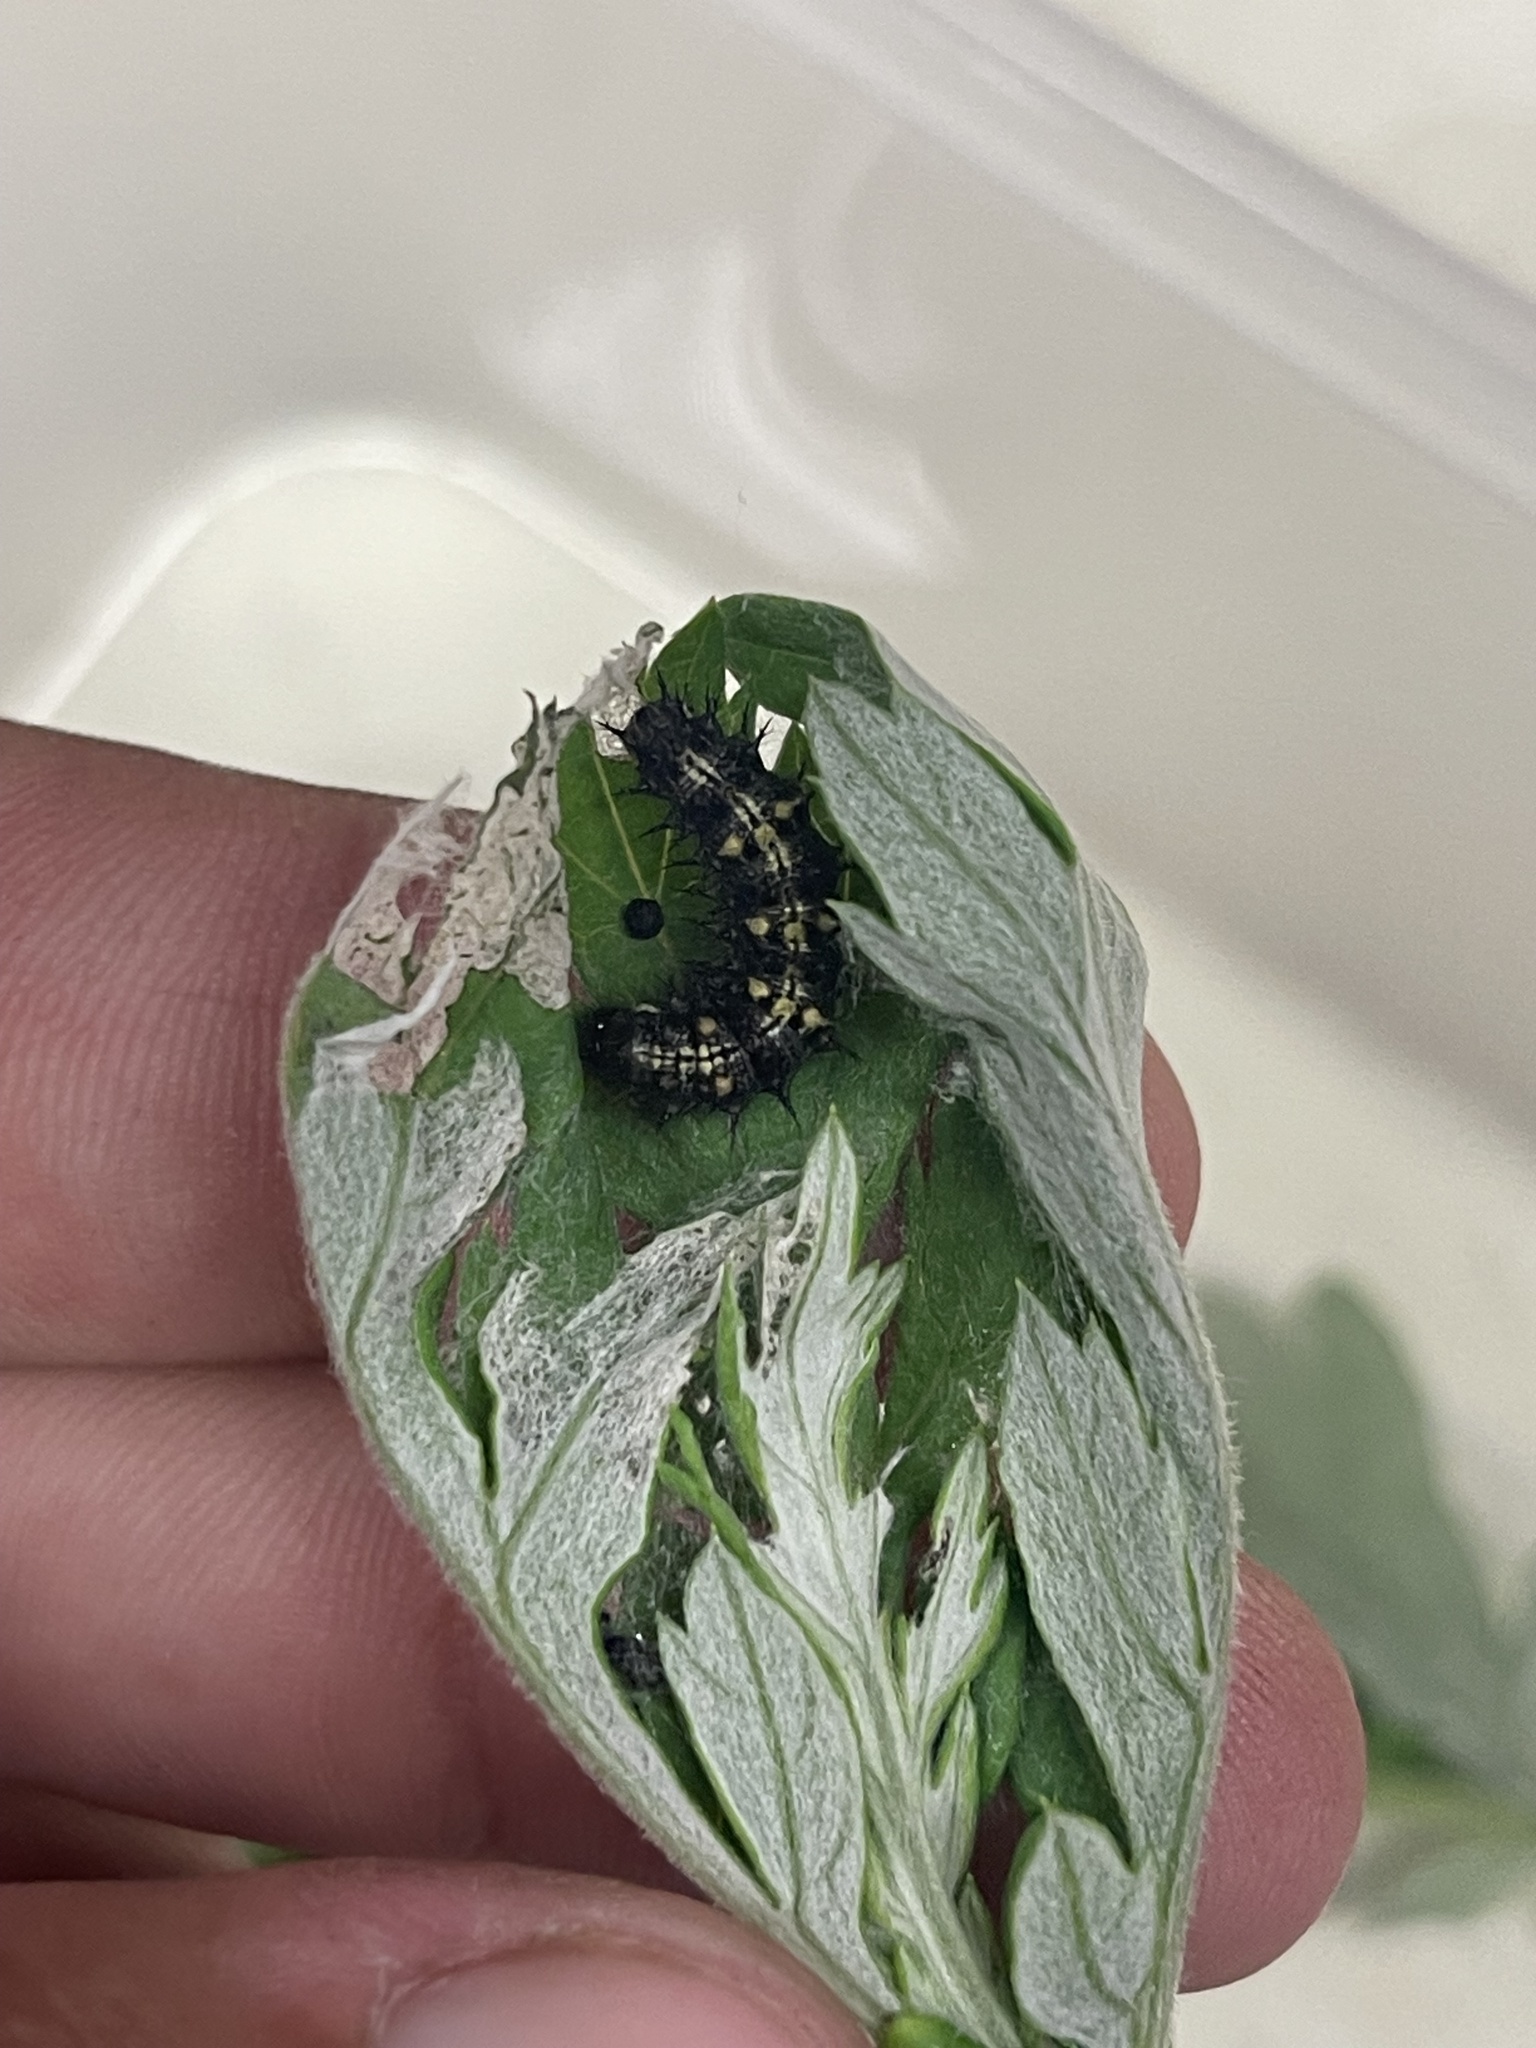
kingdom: Animalia
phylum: Arthropoda
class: Insecta
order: Lepidoptera
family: Nymphalidae
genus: Vanessa
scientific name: Vanessa cardui
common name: Painted lady
